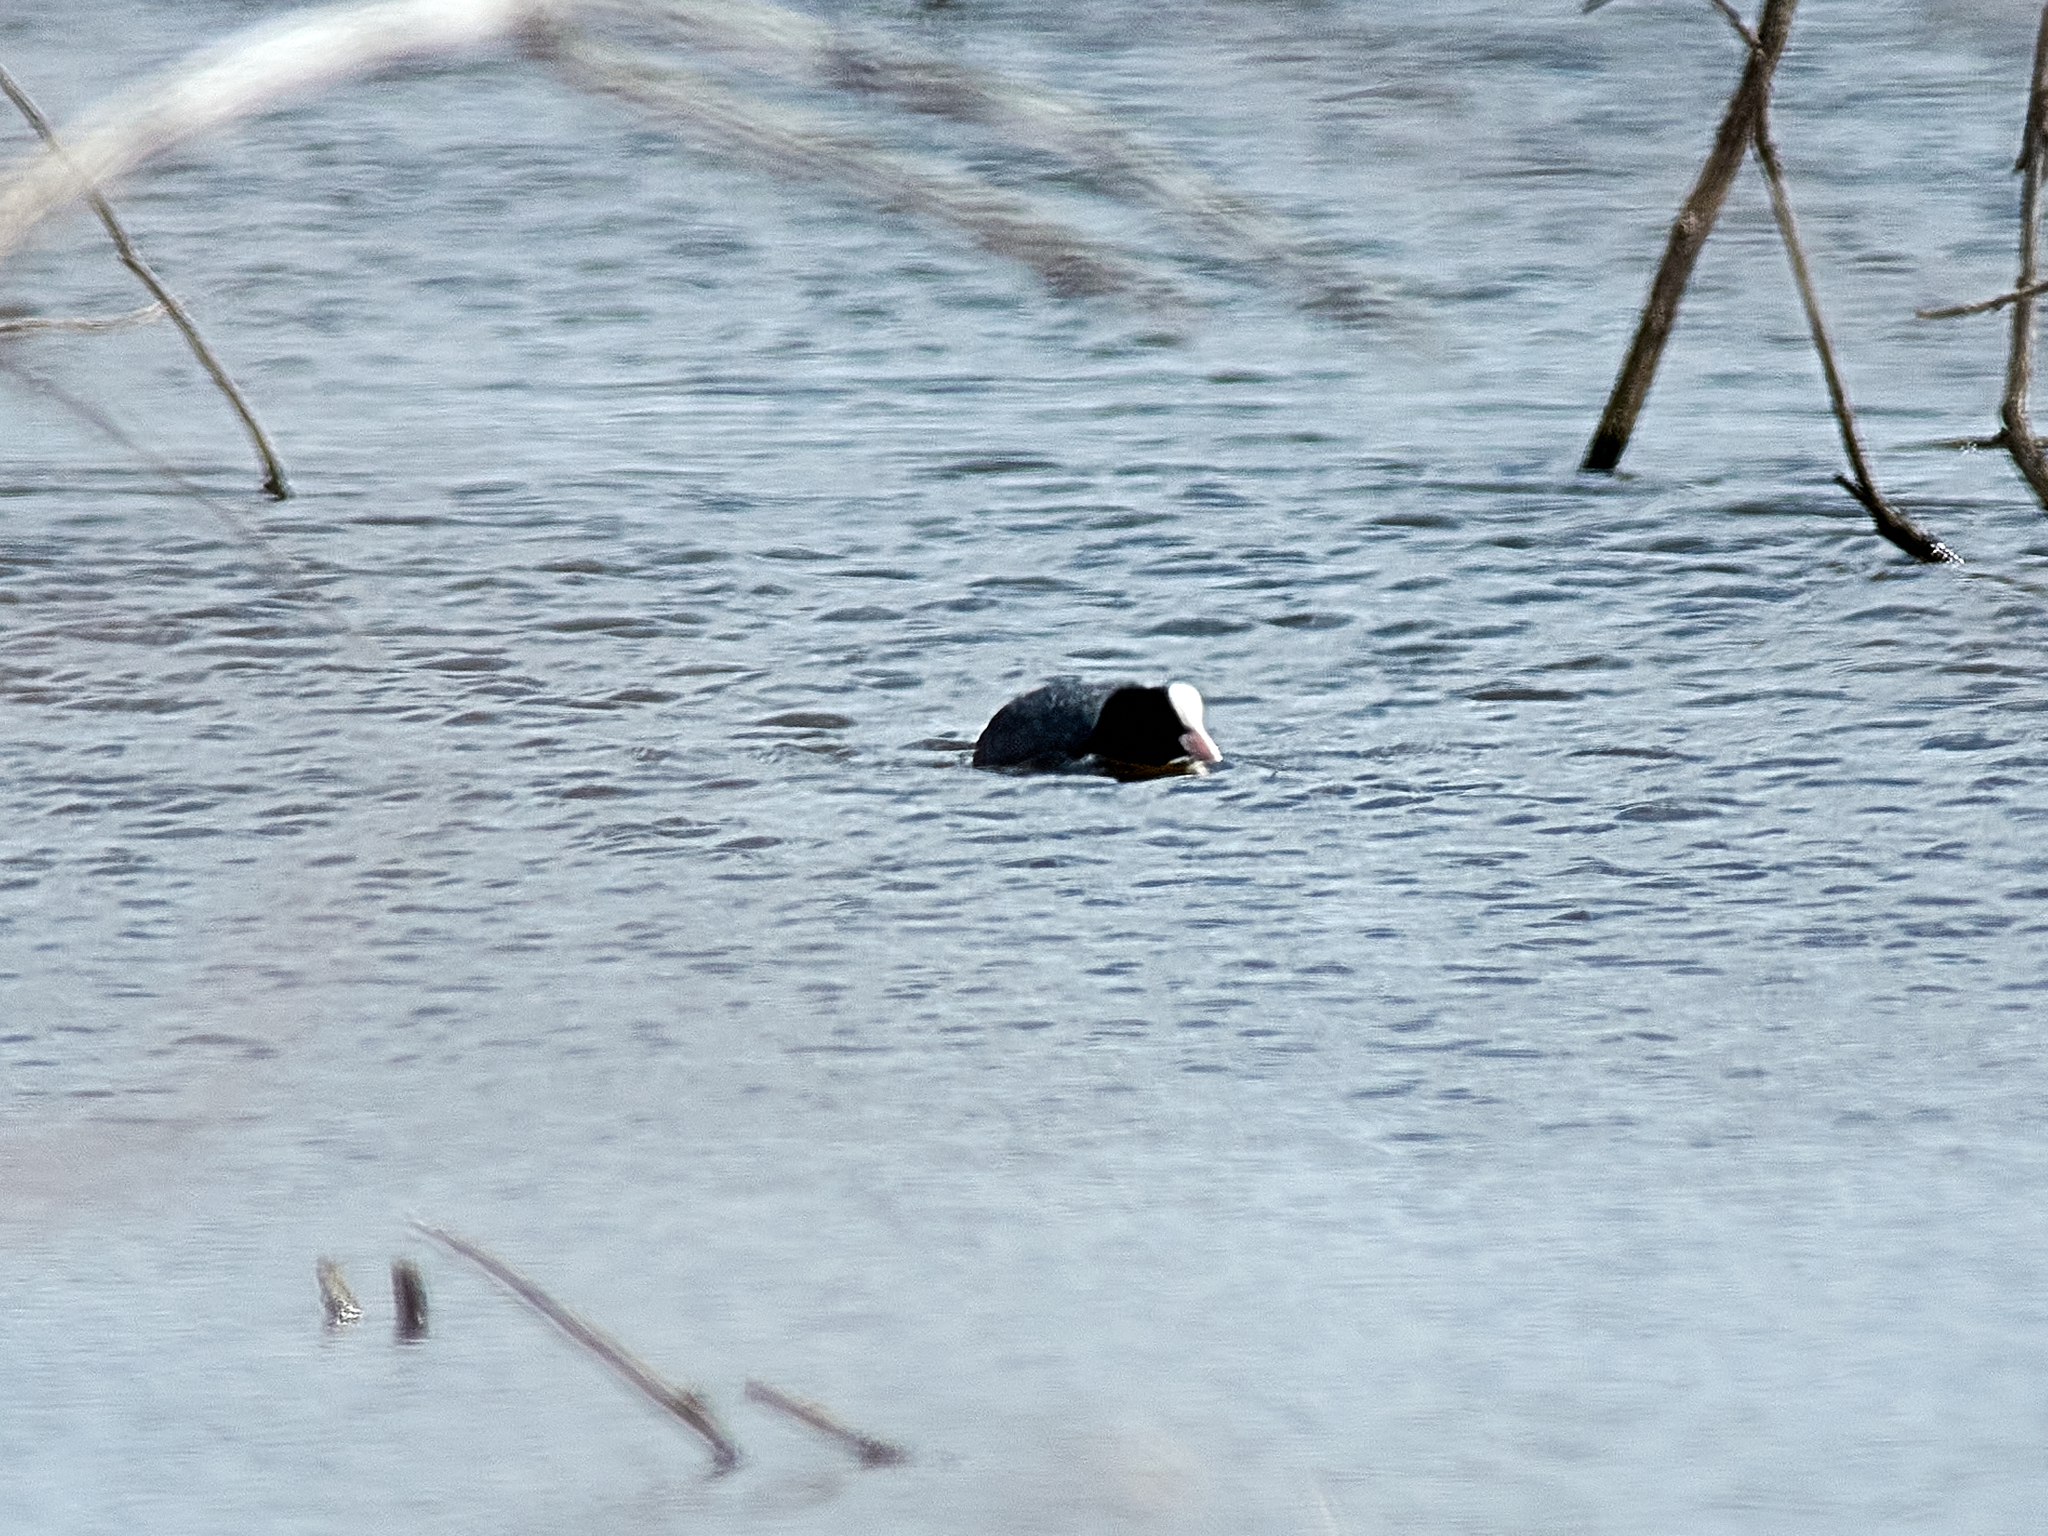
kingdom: Animalia
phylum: Chordata
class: Aves
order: Gruiformes
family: Rallidae
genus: Fulica
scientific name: Fulica atra
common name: Eurasian coot
